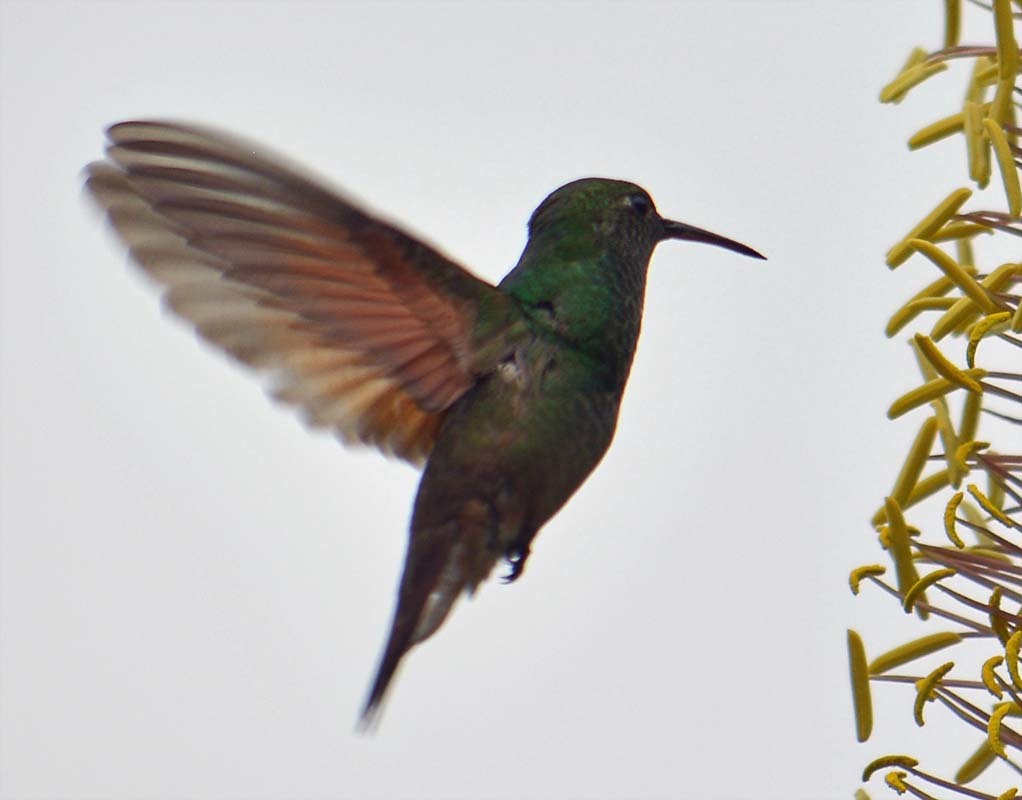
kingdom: Animalia
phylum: Chordata
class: Aves
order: Apodiformes
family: Trochilidae
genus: Saucerottia
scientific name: Saucerottia beryllina
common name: Berylline hummingbird
